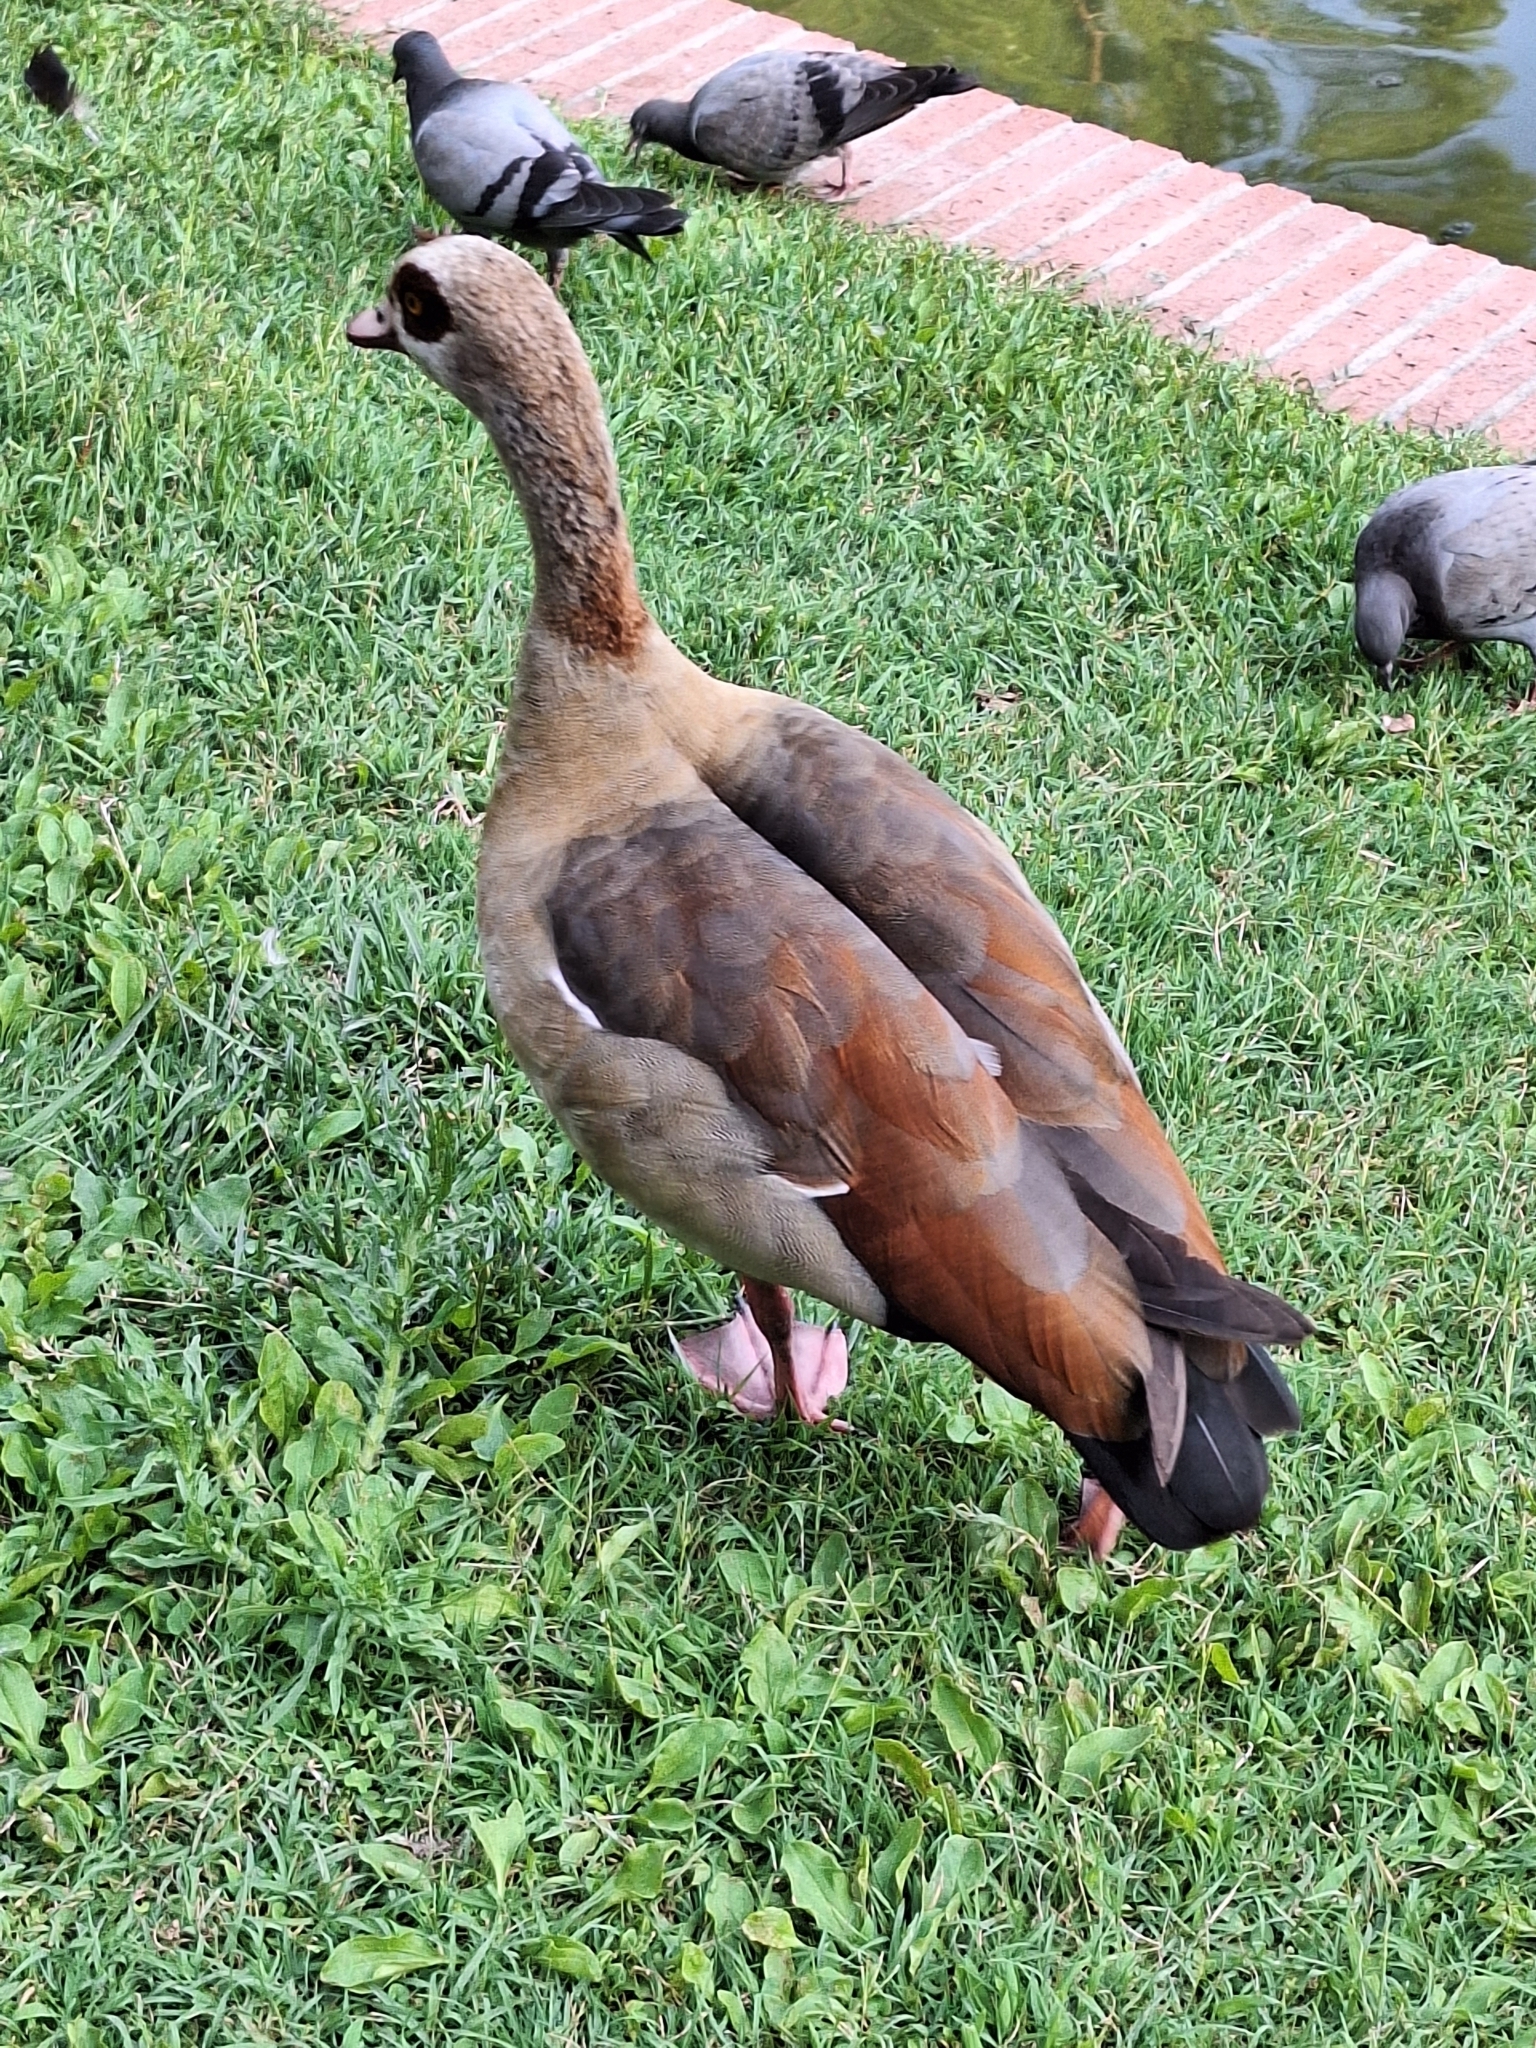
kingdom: Animalia
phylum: Chordata
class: Aves
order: Anseriformes
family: Anatidae
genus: Alopochen
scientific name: Alopochen aegyptiaca
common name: Egyptian goose
